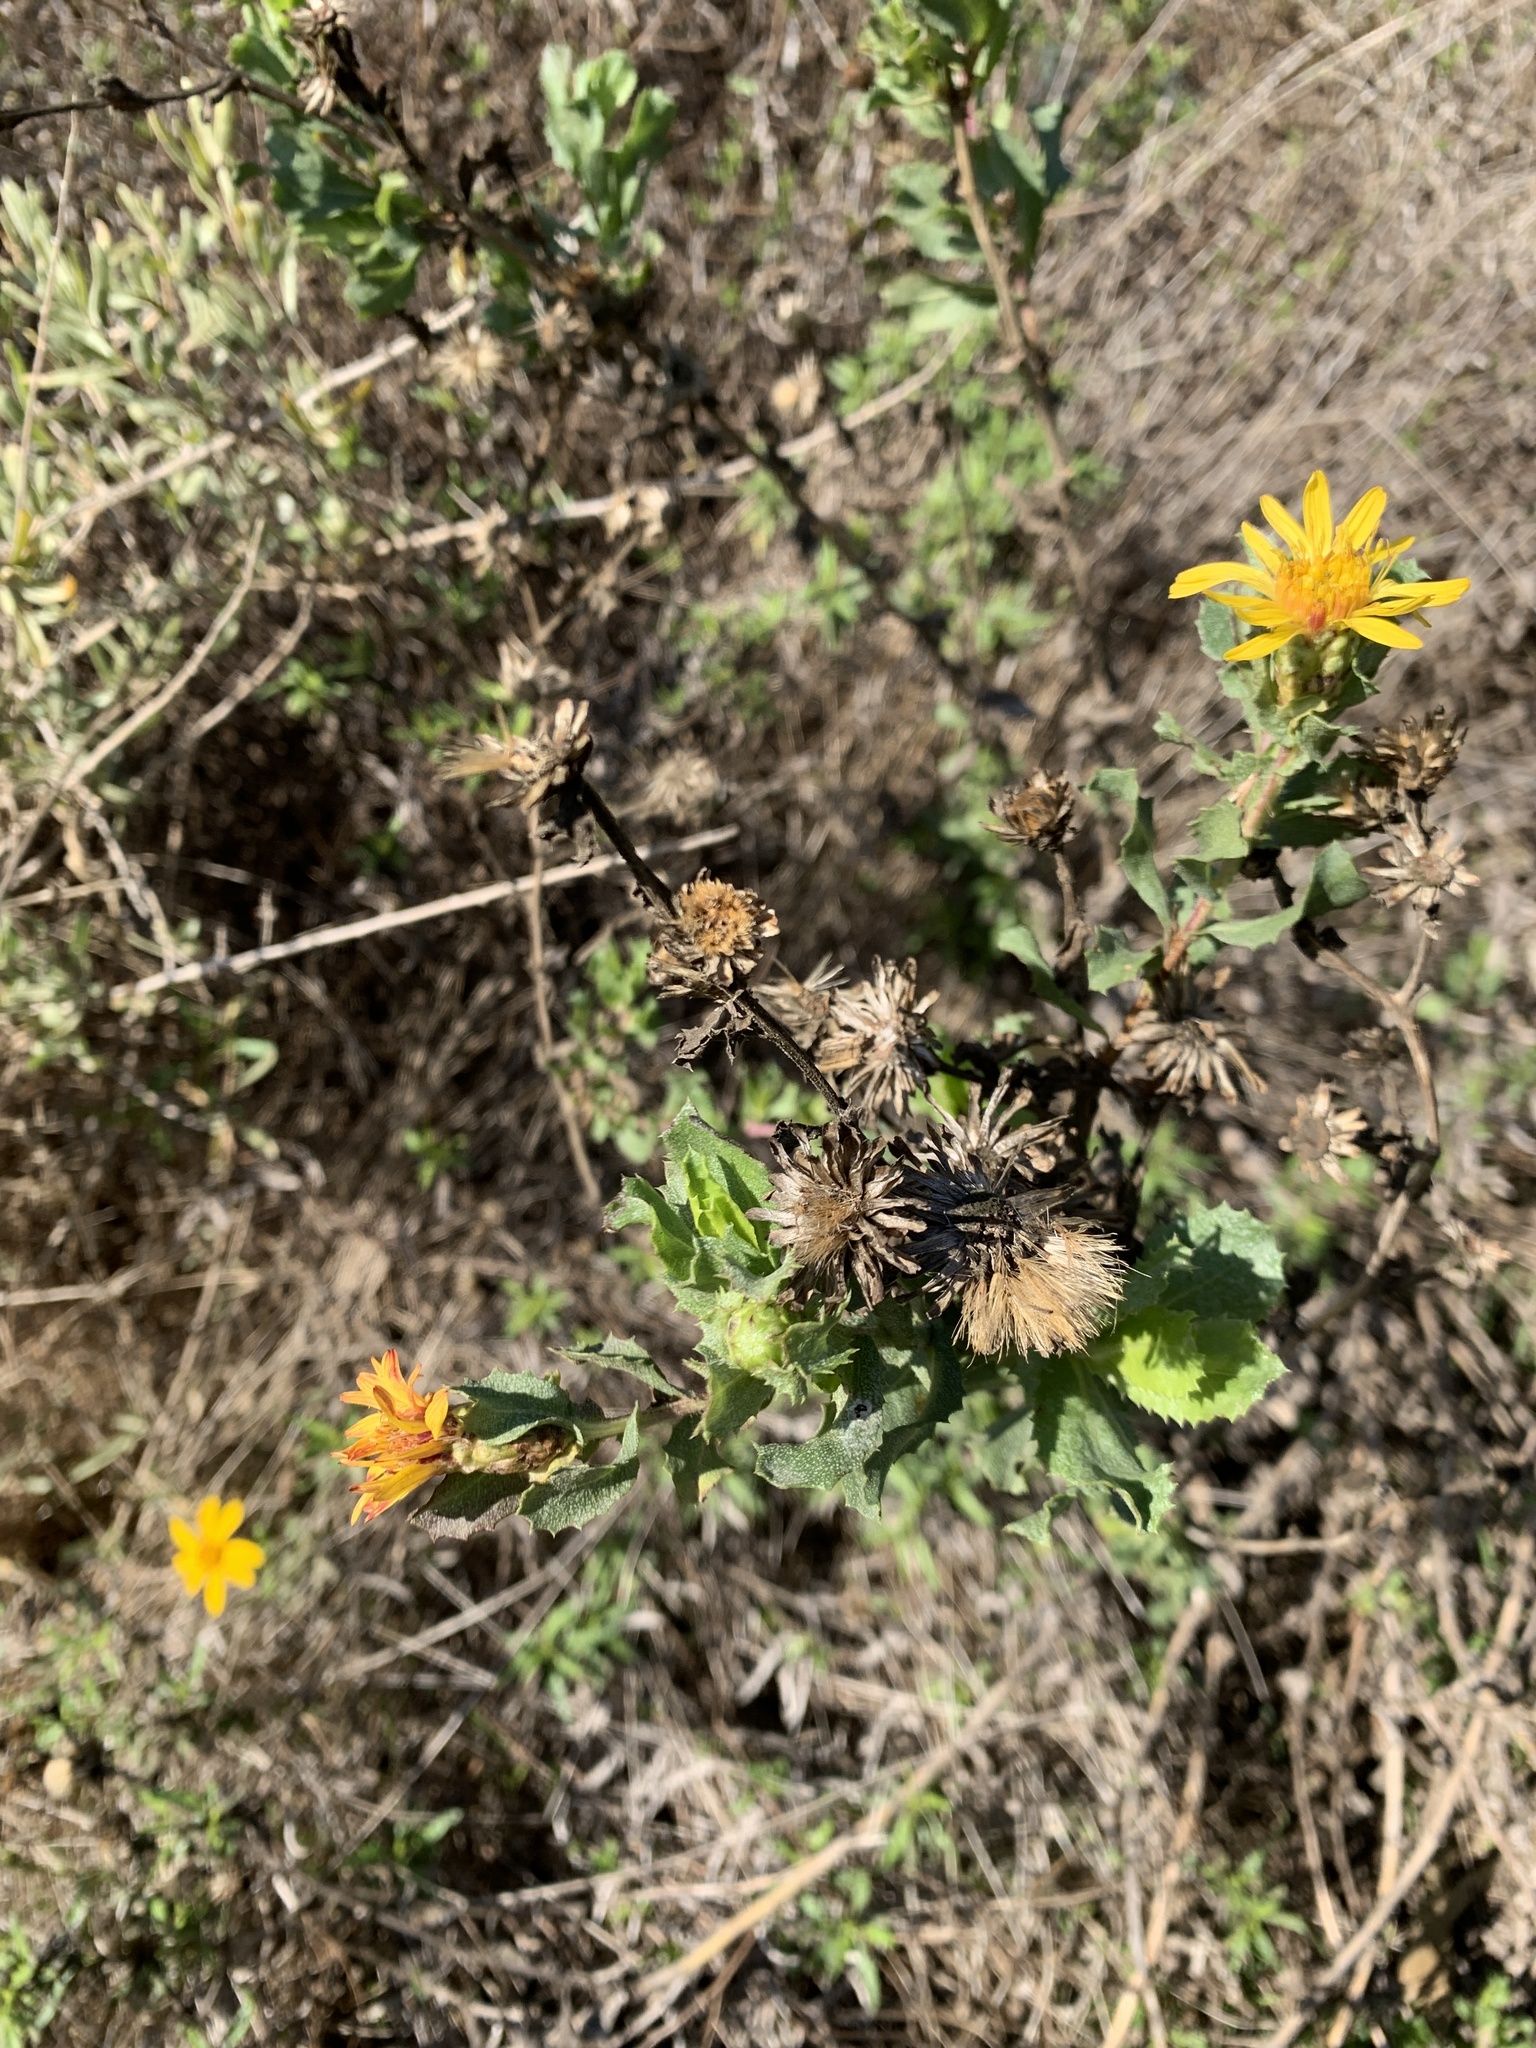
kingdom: Plantae
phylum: Tracheophyta
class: Magnoliopsida
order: Asterales
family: Asteraceae
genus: Hazardia
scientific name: Hazardia berberidis
